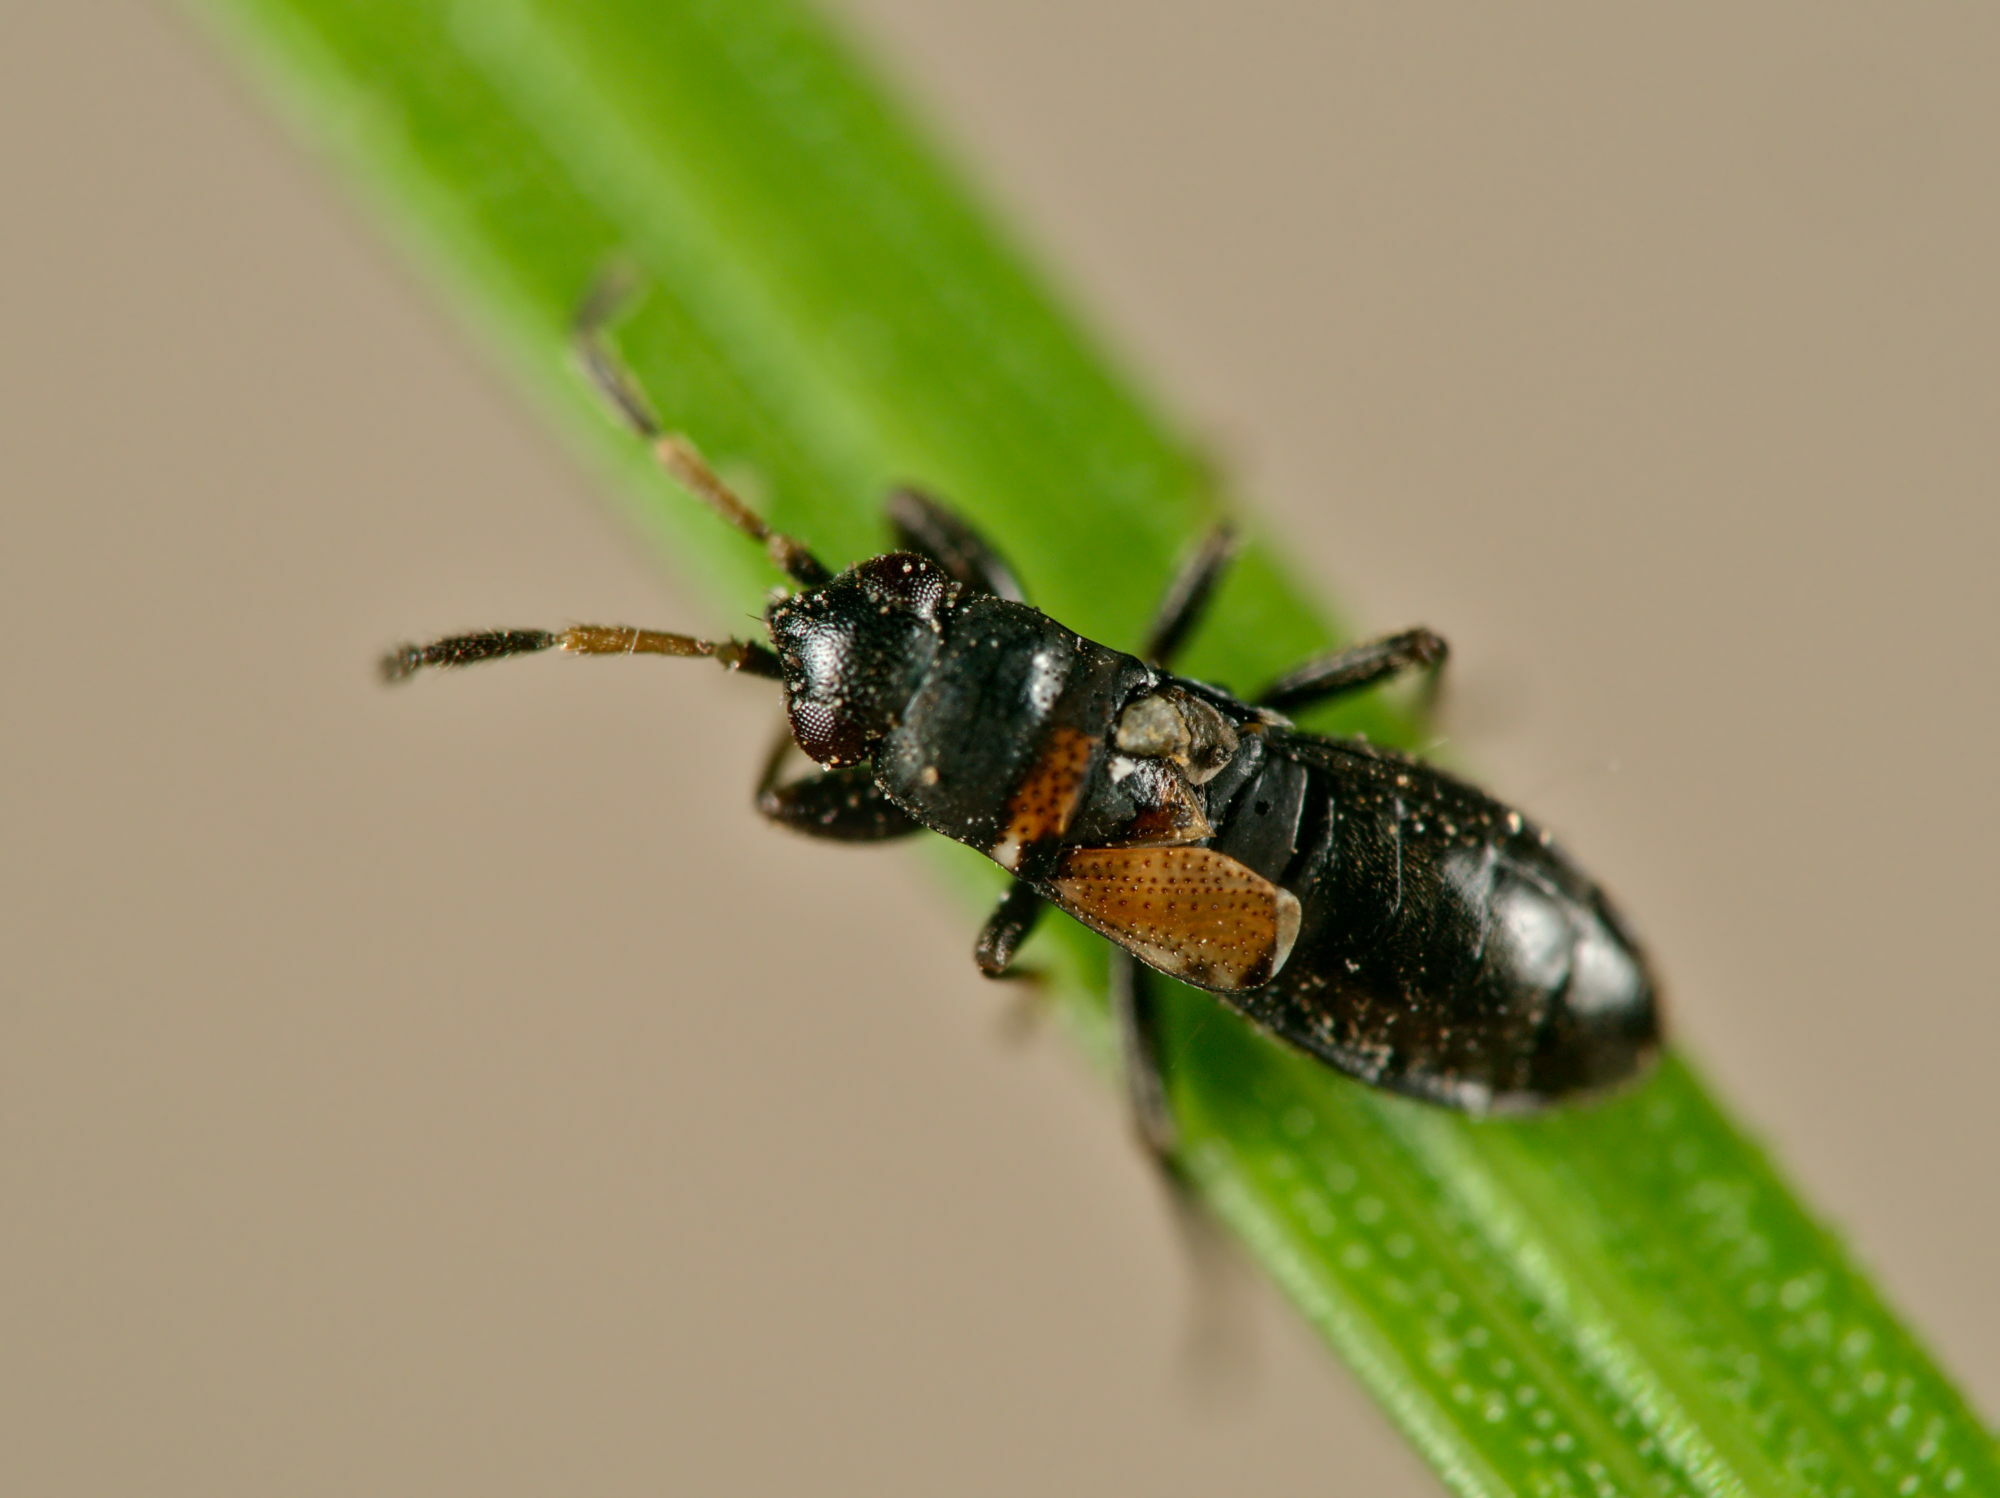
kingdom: Animalia
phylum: Arthropoda
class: Insecta
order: Hemiptera
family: Rhyparochromidae
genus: Ischnocoris
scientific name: Ischnocoris hemipterus
